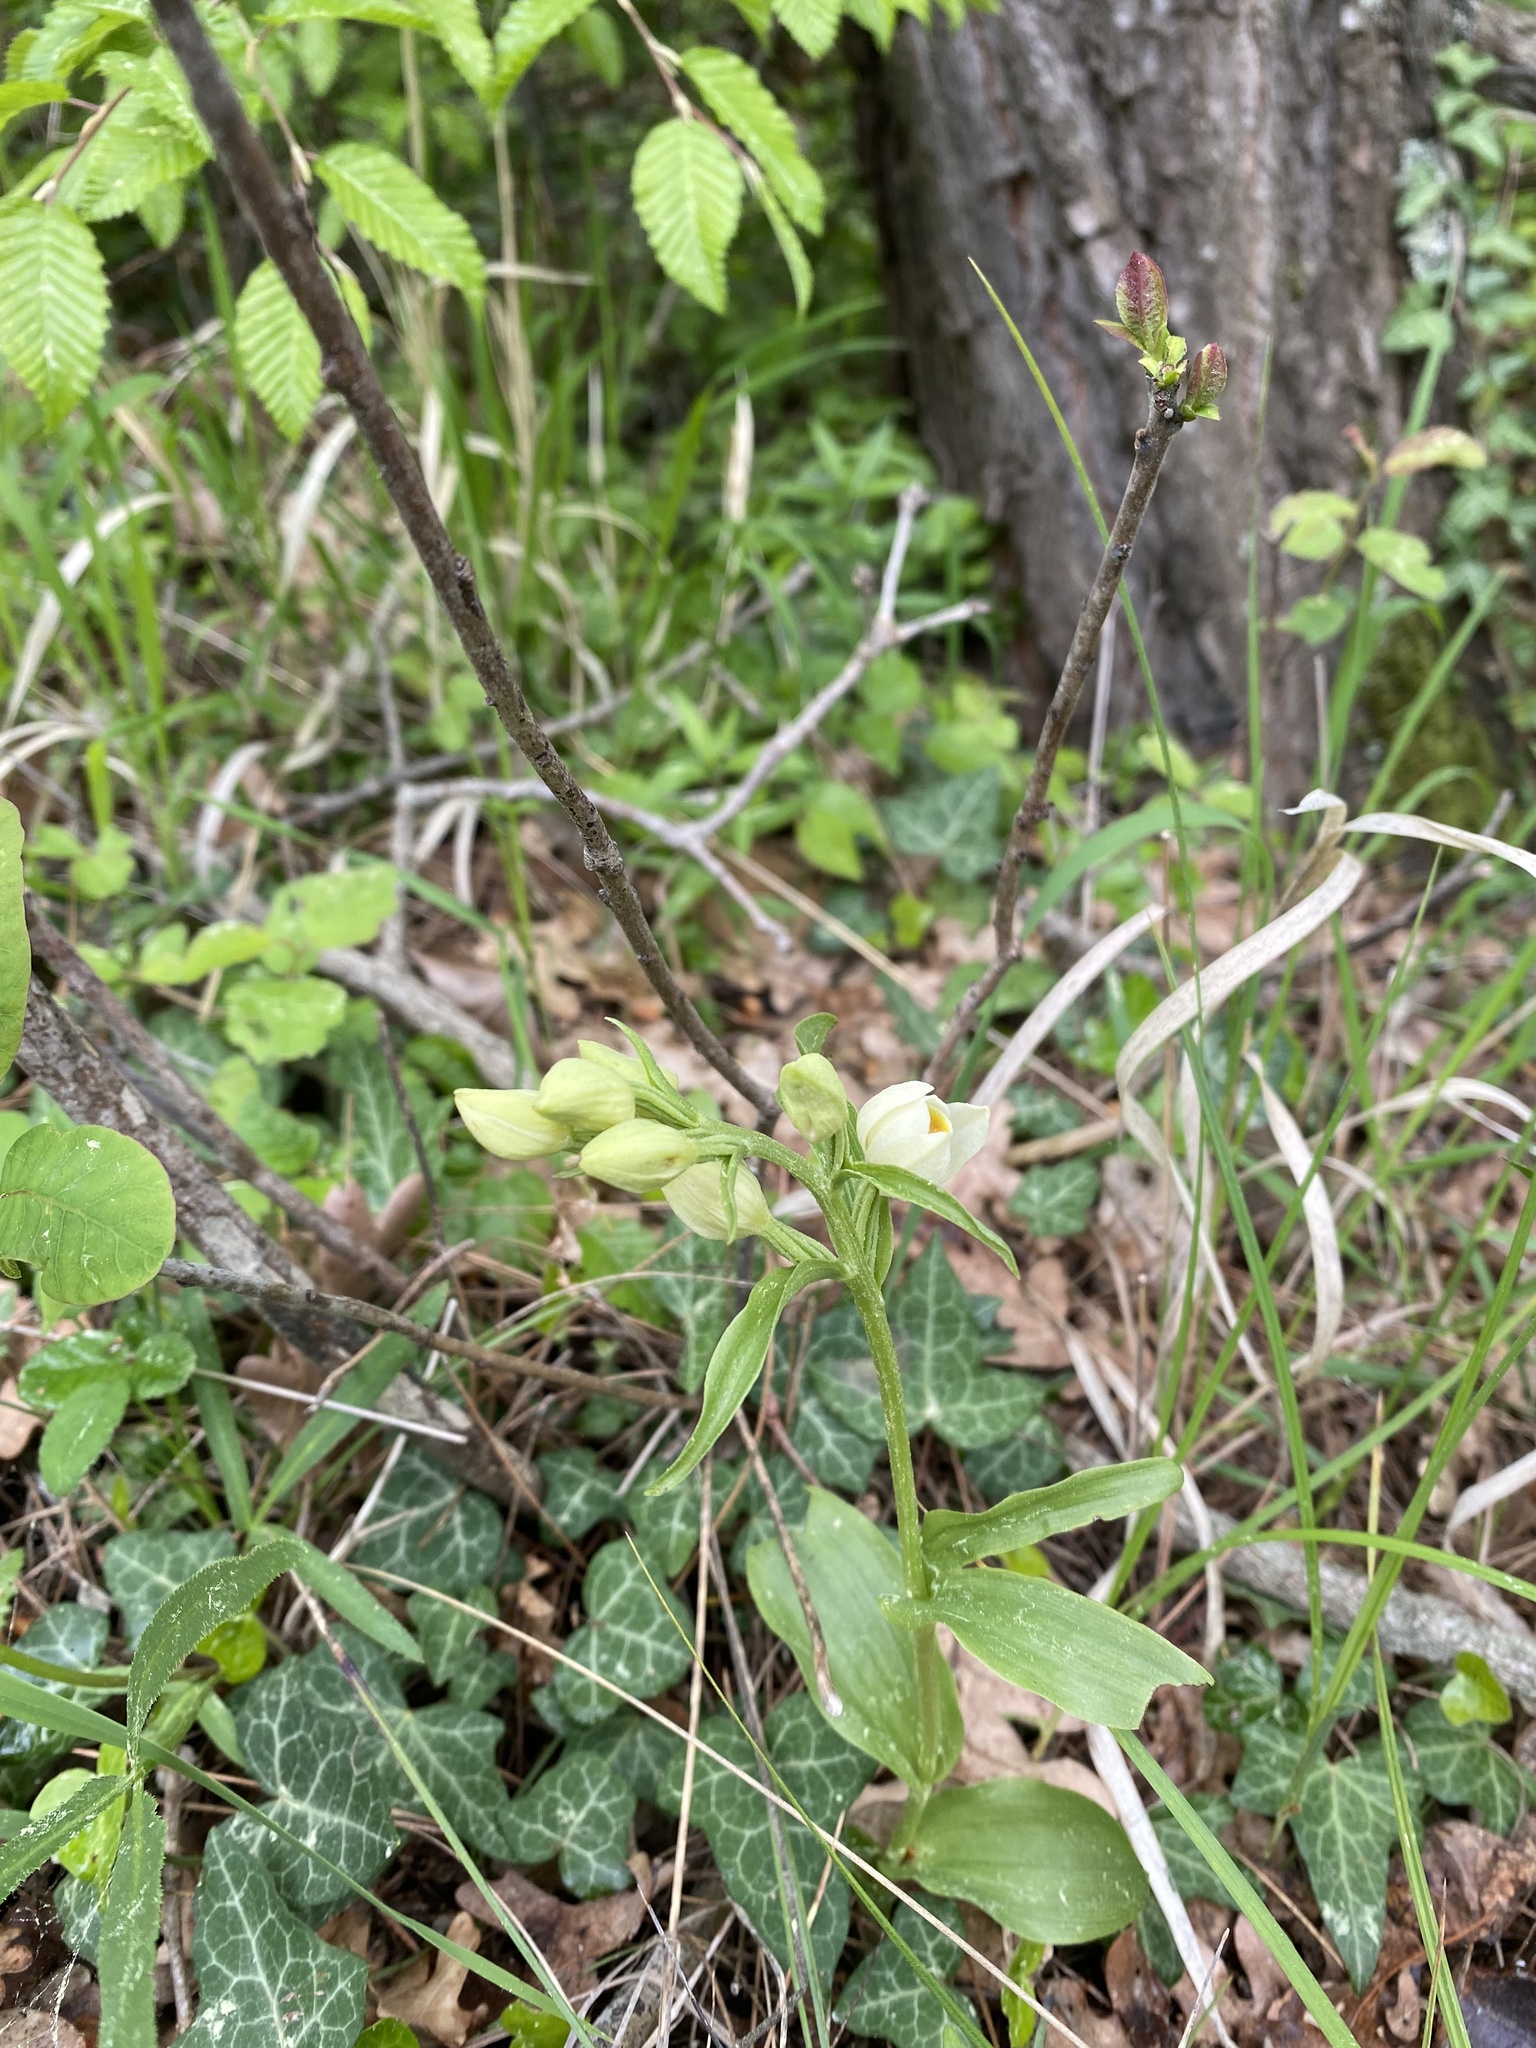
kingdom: Plantae
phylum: Tracheophyta
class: Liliopsida
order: Asparagales
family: Orchidaceae
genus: Cephalanthera
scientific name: Cephalanthera damasonium
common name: White helleborine
